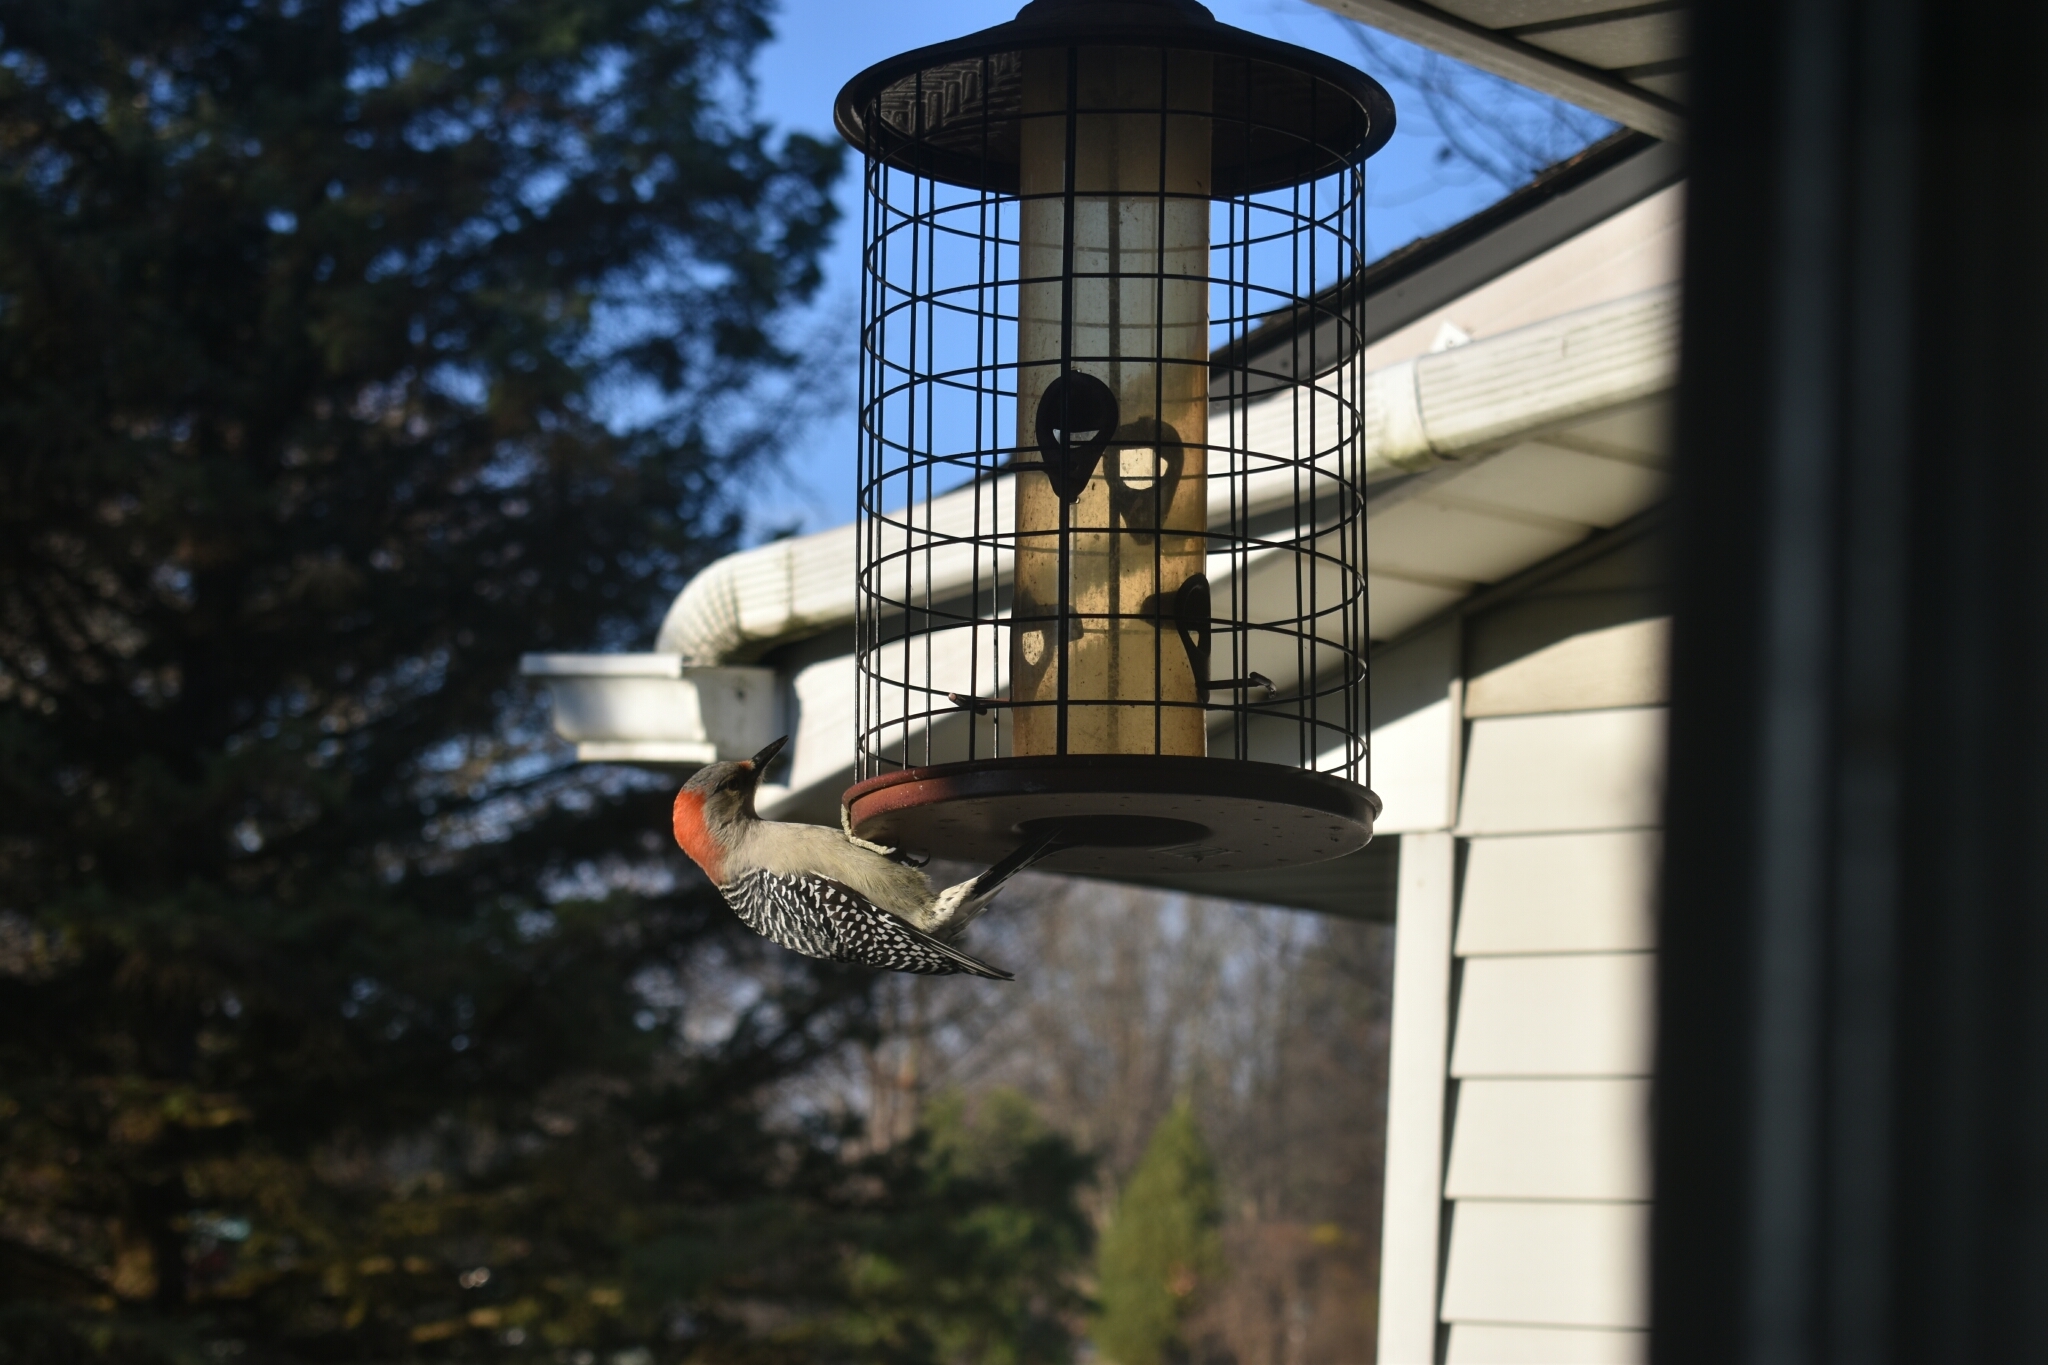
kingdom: Animalia
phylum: Chordata
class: Aves
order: Piciformes
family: Picidae
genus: Melanerpes
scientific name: Melanerpes carolinus
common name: Red-bellied woodpecker
